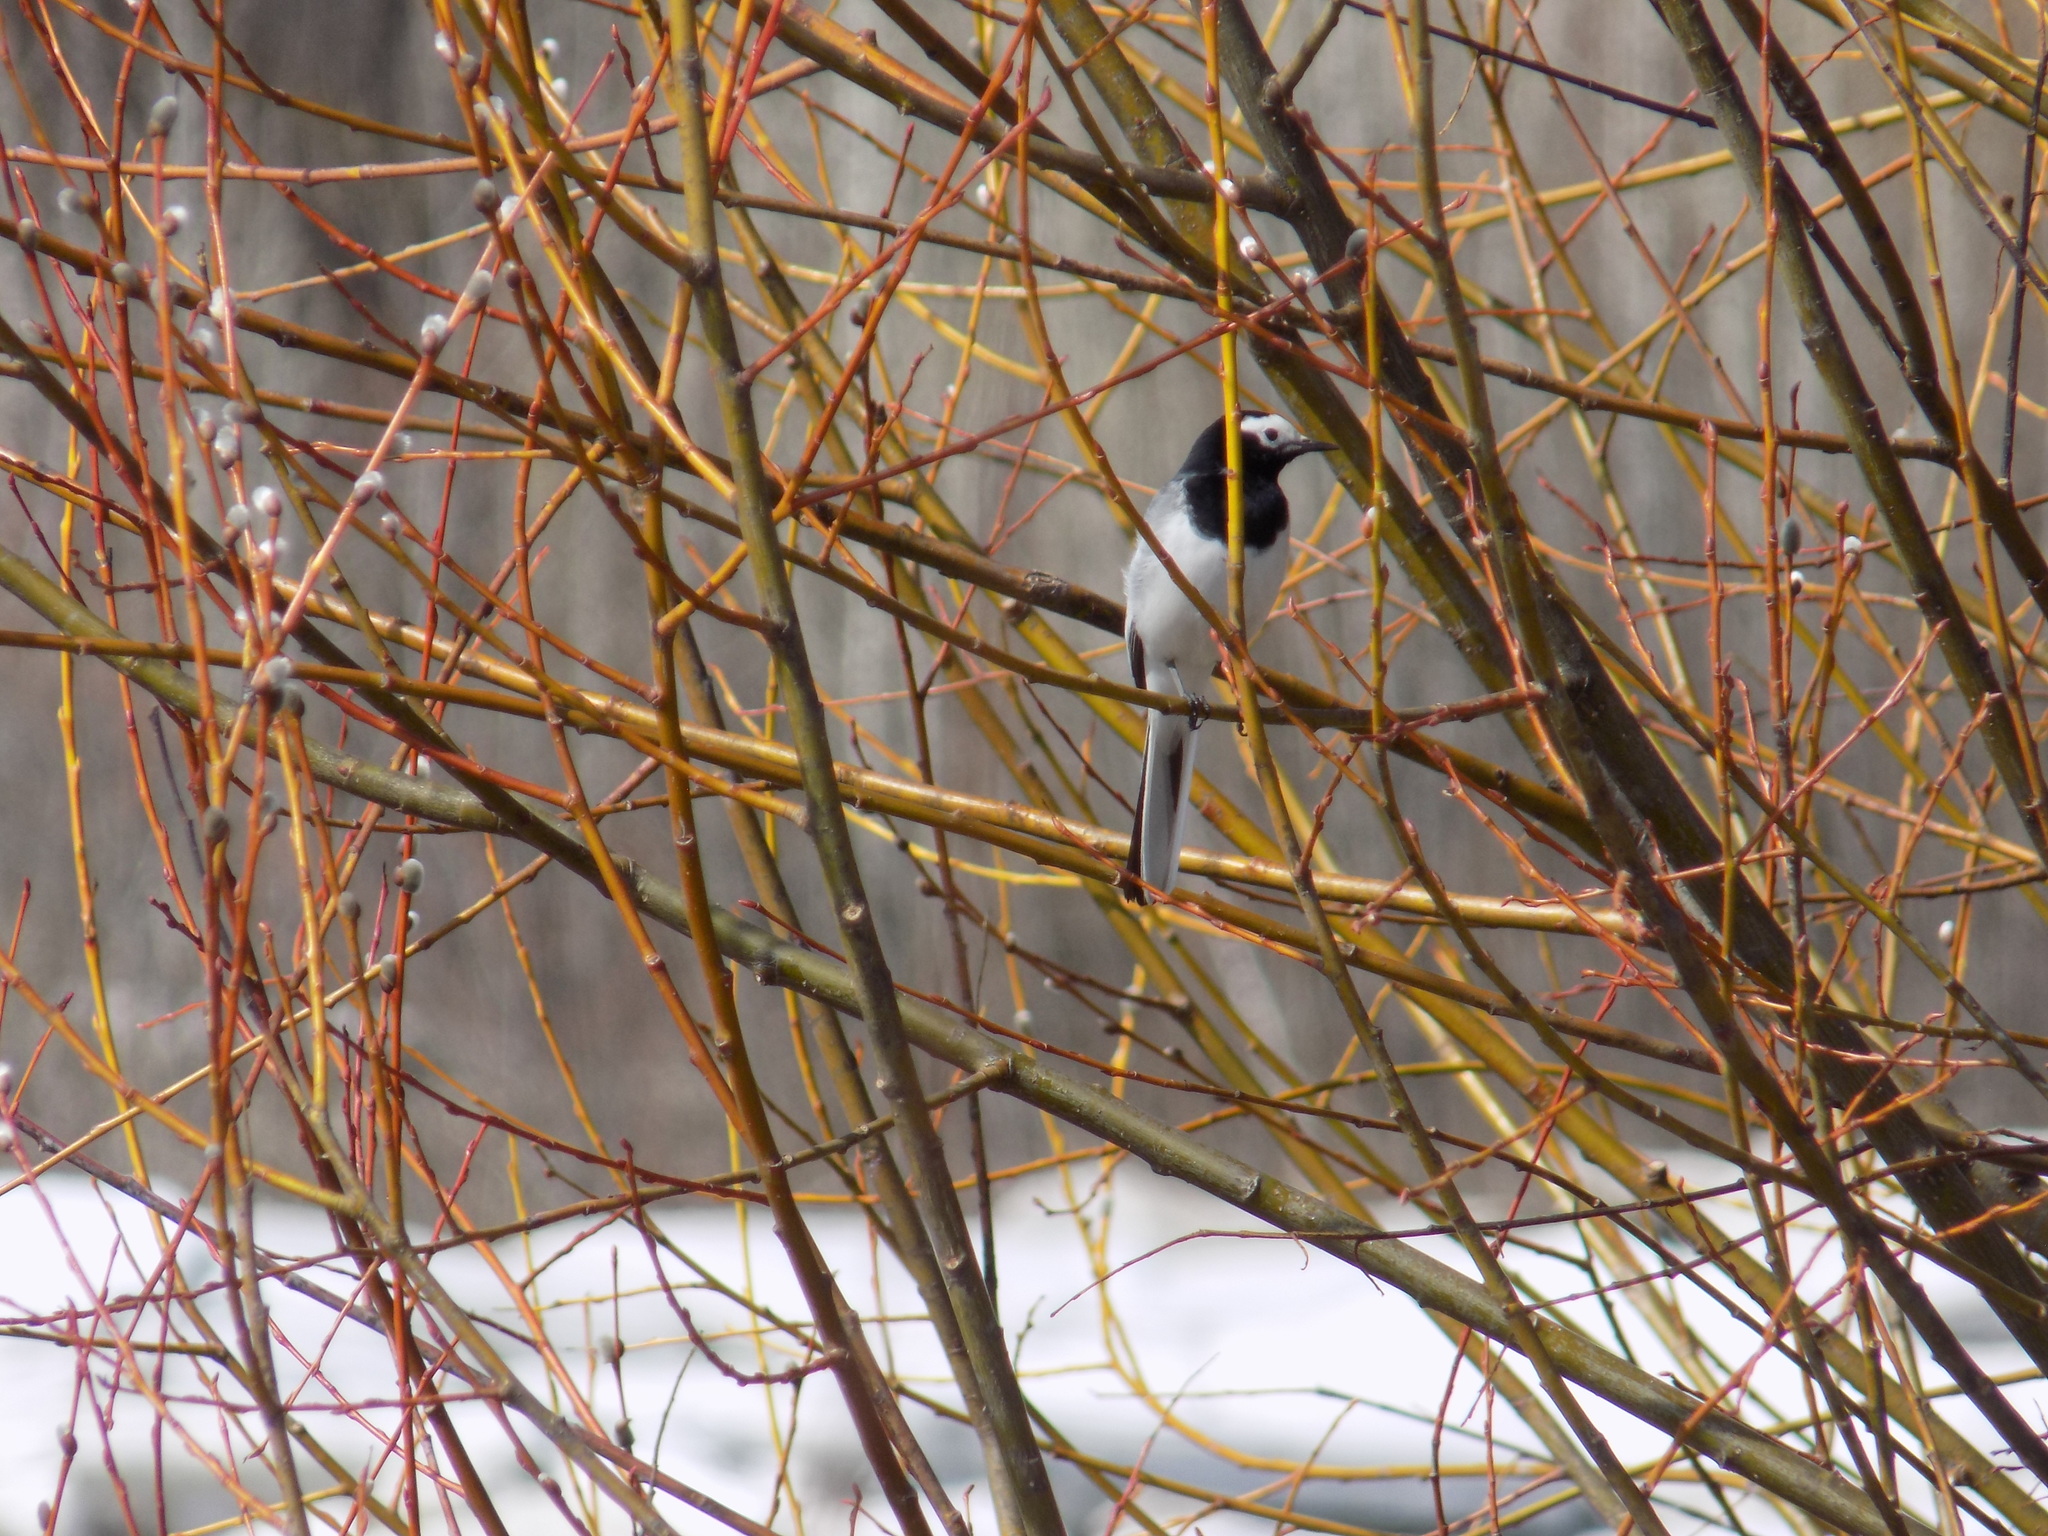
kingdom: Animalia
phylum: Chordata
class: Aves
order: Passeriformes
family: Motacillidae
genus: Motacilla
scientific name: Motacilla alba
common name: White wagtail
